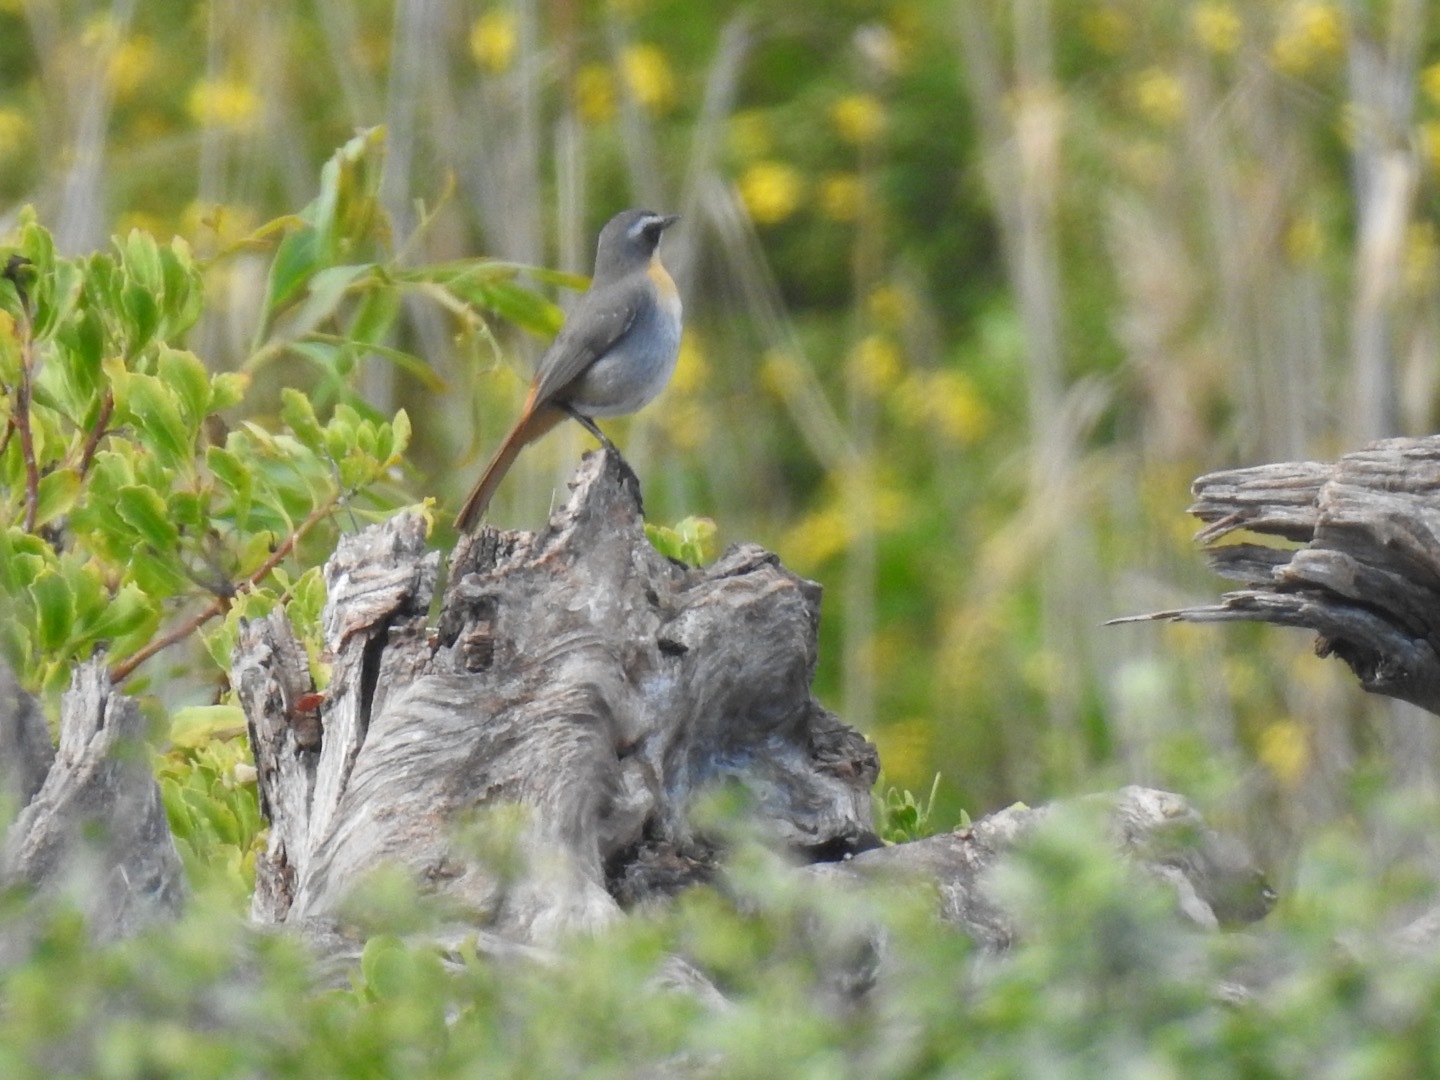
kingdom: Animalia
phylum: Chordata
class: Aves
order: Passeriformes
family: Muscicapidae
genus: Cossypha
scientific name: Cossypha caffra
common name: Cape robin-chat
